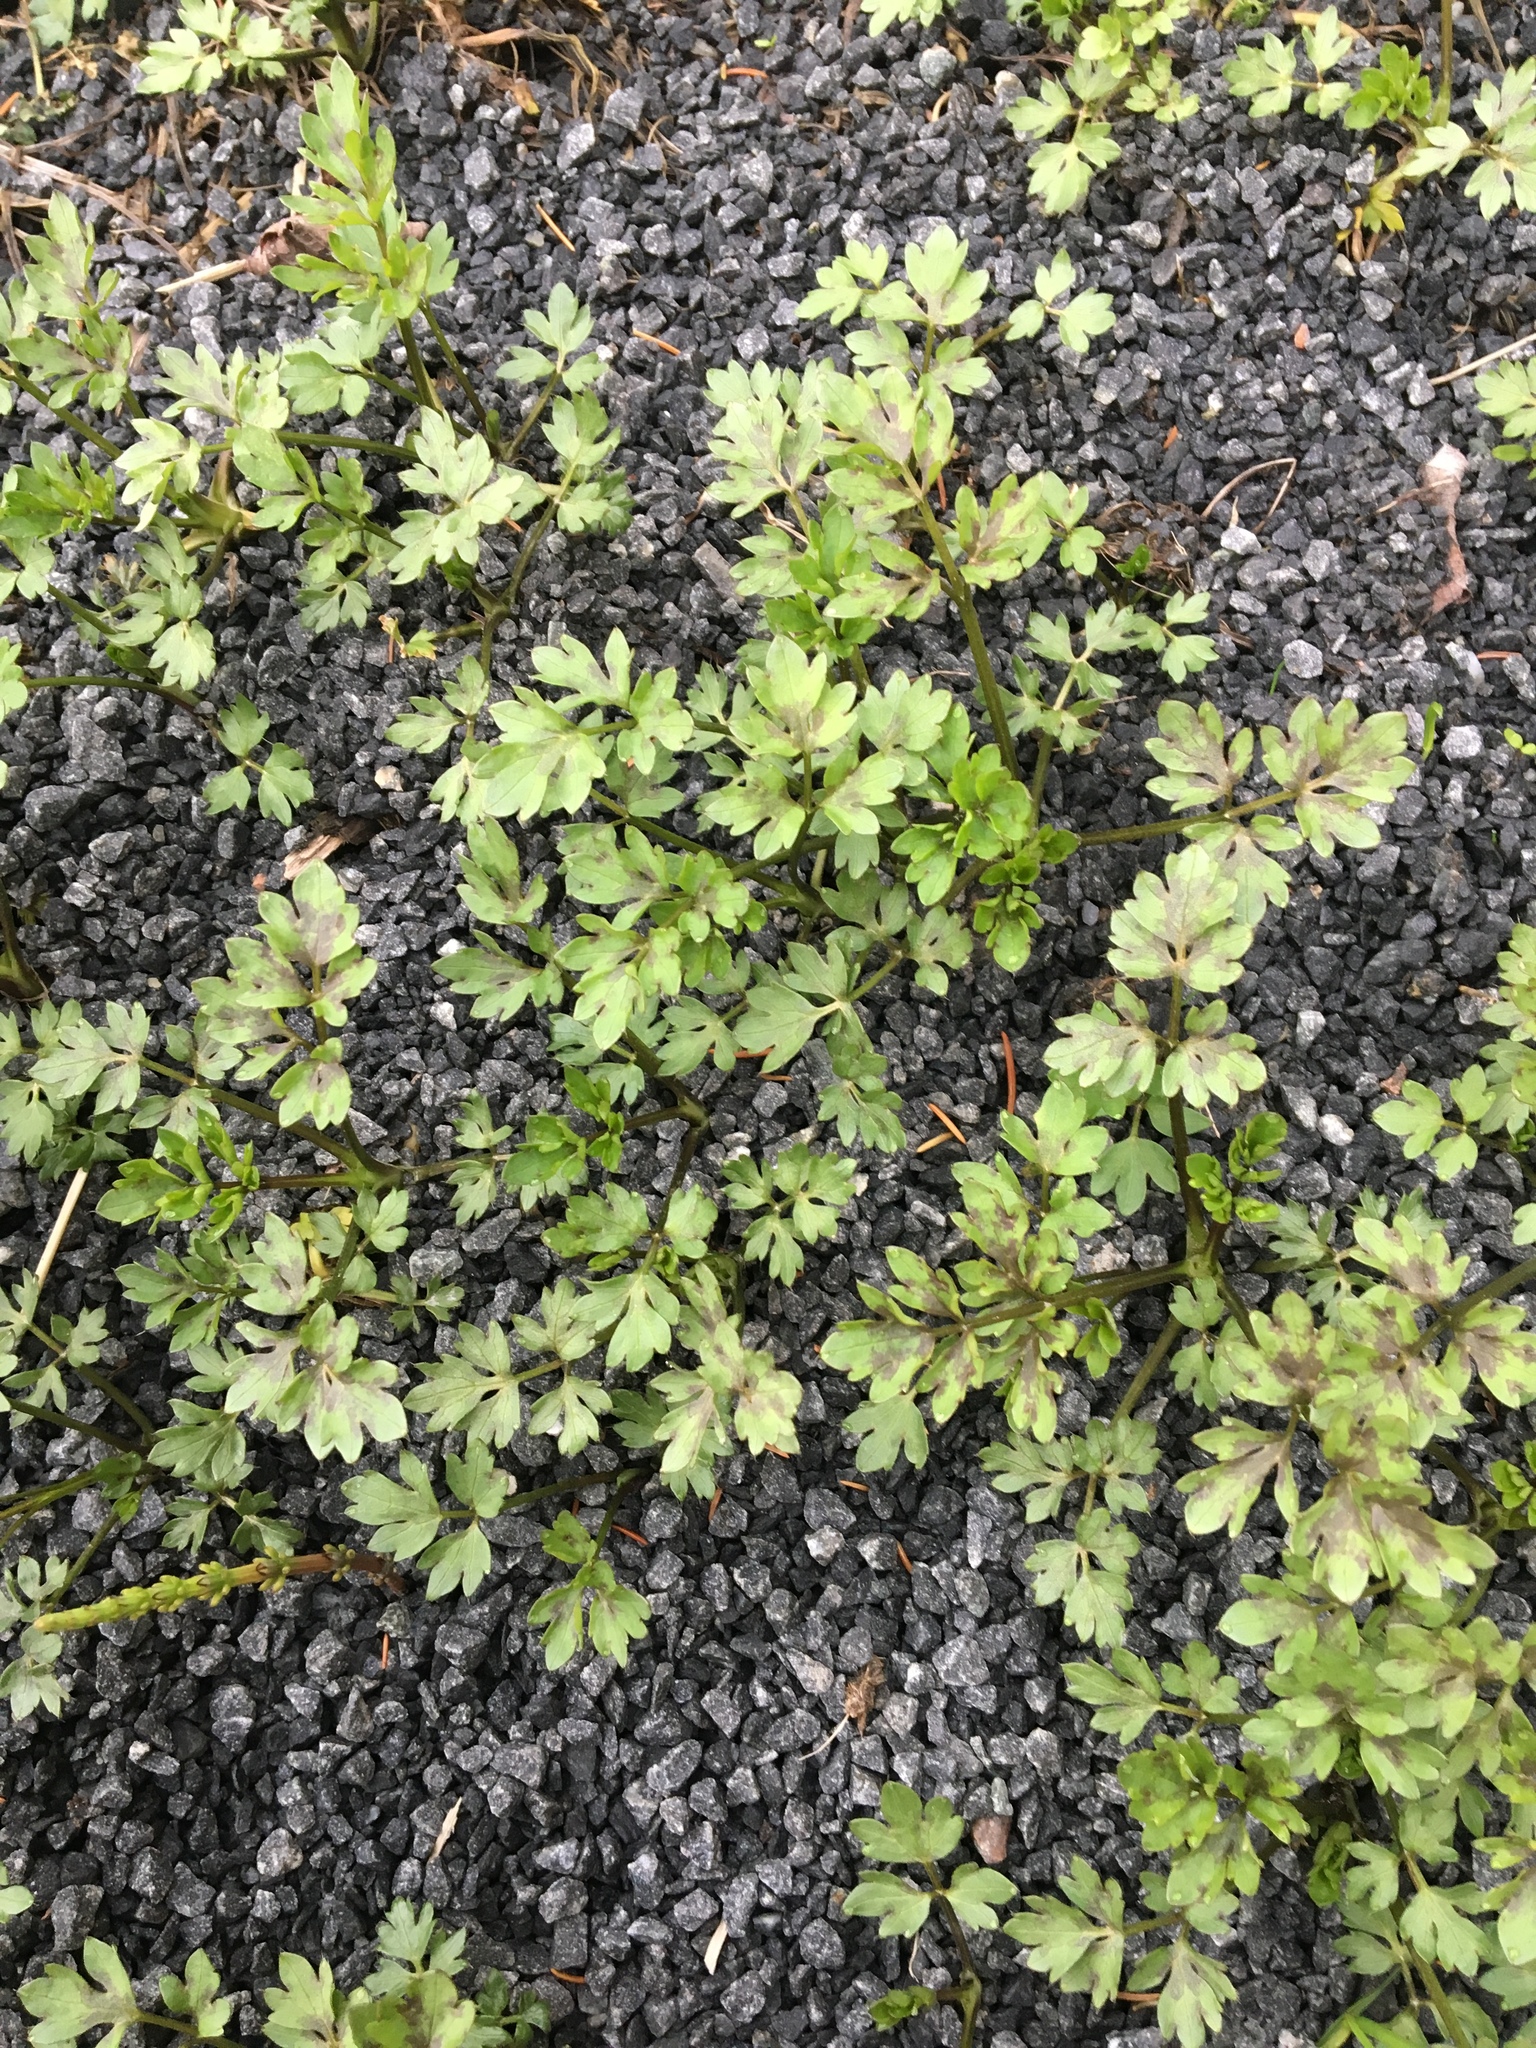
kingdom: Plantae
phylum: Tracheophyta
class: Magnoliopsida
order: Ranunculales
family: Ranunculaceae
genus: Ranunculus
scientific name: Ranunculus repens
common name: Creeping buttercup
